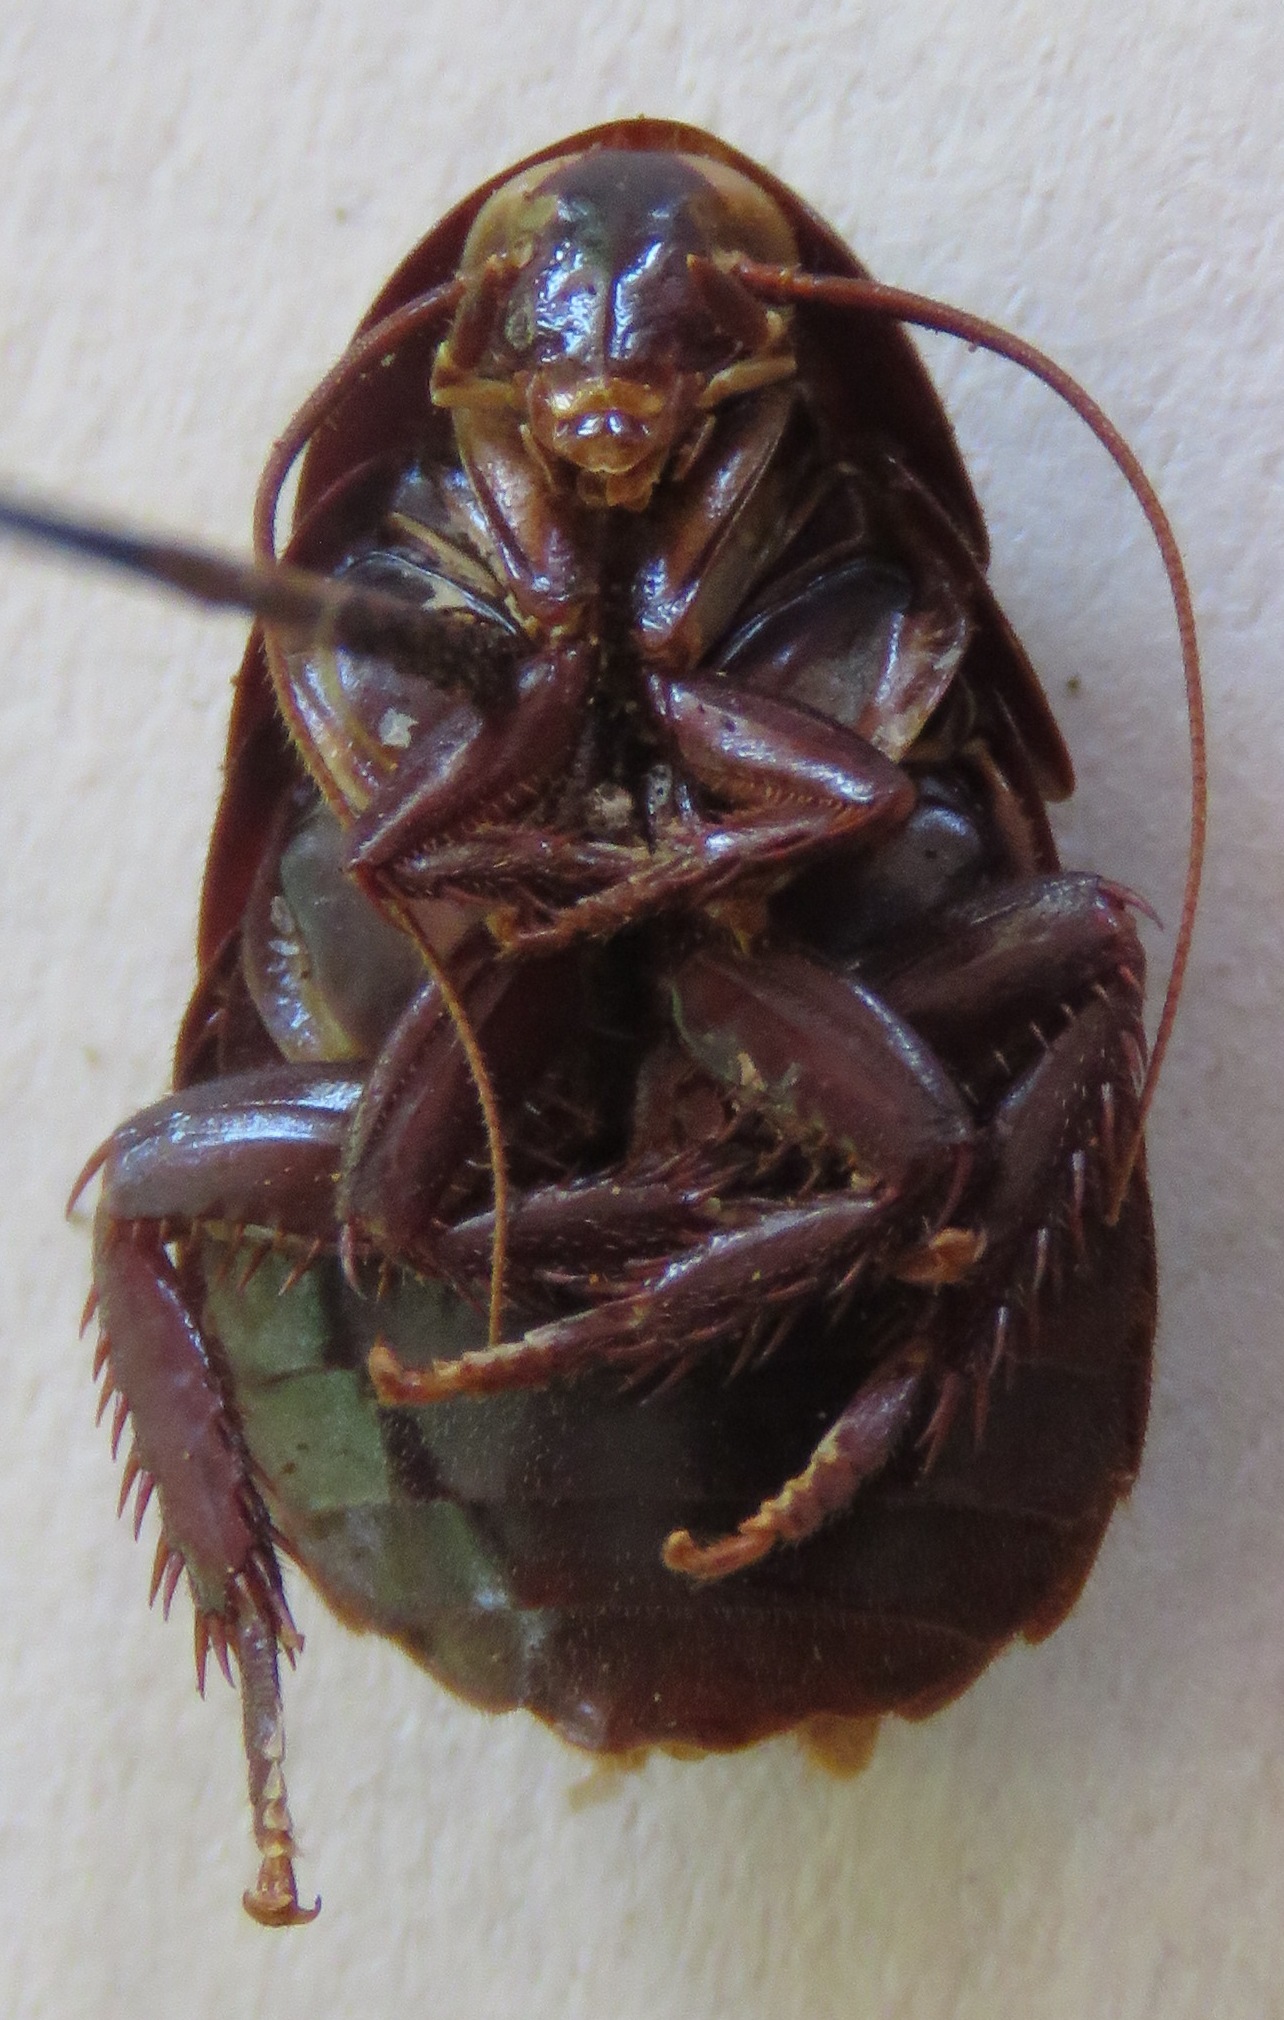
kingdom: Animalia
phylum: Arthropoda
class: Insecta
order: Blattodea
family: Ectobiidae
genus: Nyctibora
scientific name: Nyctibora noctivaga
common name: Great brown cockroach
